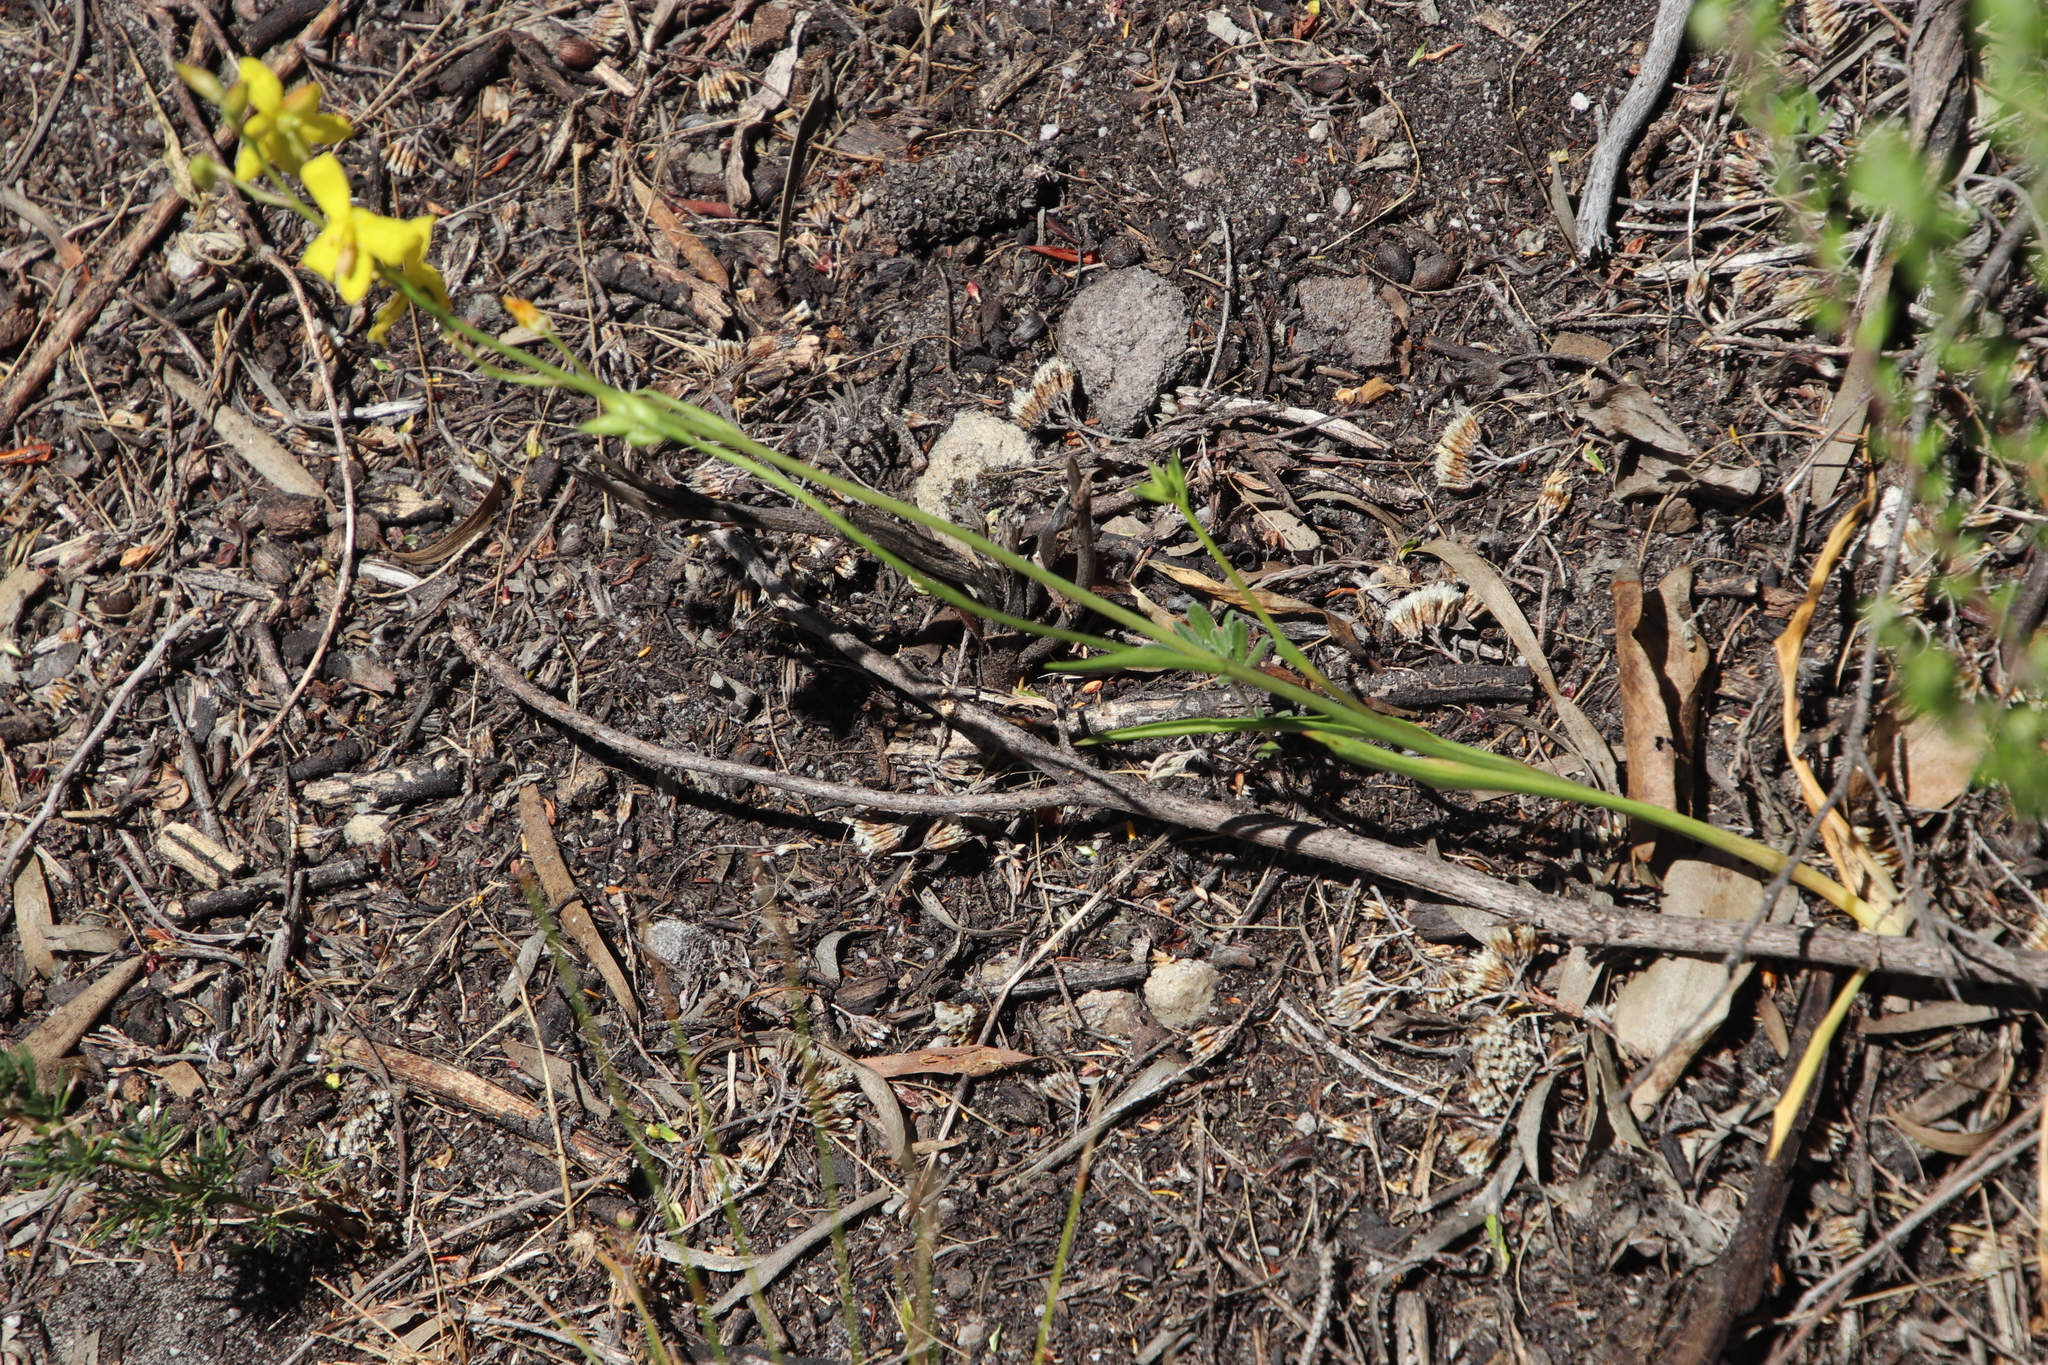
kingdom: Plantae
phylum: Tracheophyta
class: Liliopsida
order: Asparagales
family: Tecophilaeaceae
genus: Cyanella
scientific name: Cyanella lutea
